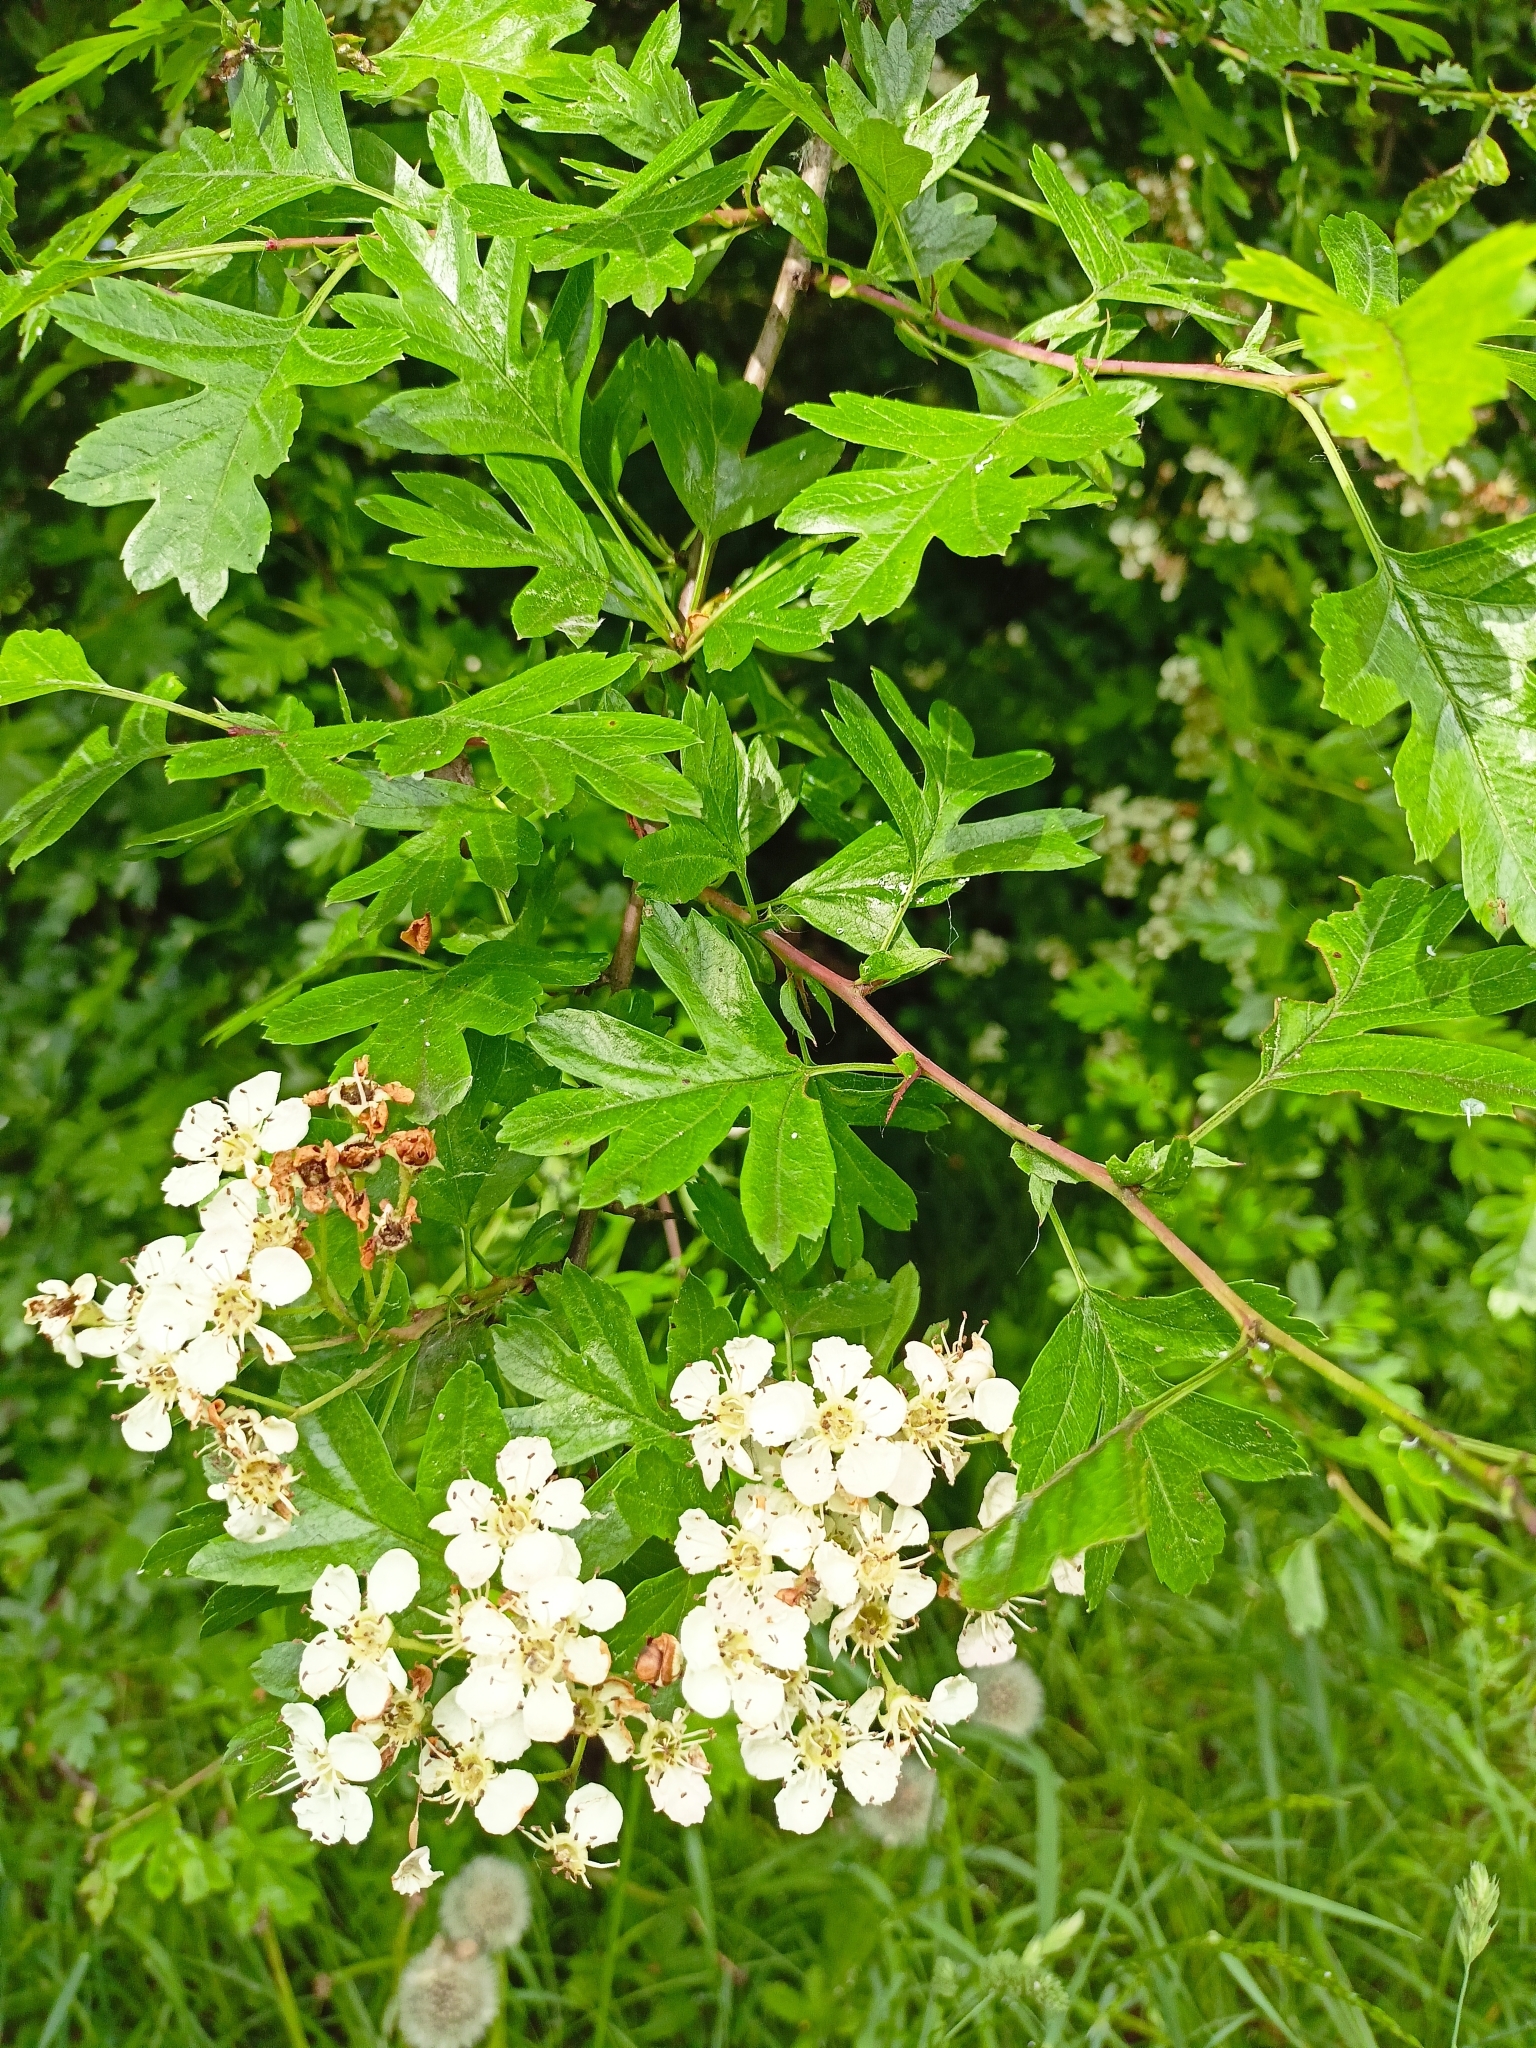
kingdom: Plantae
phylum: Tracheophyta
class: Magnoliopsida
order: Rosales
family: Rosaceae
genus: Crataegus
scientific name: Crataegus monogyna
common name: Hawthorn
